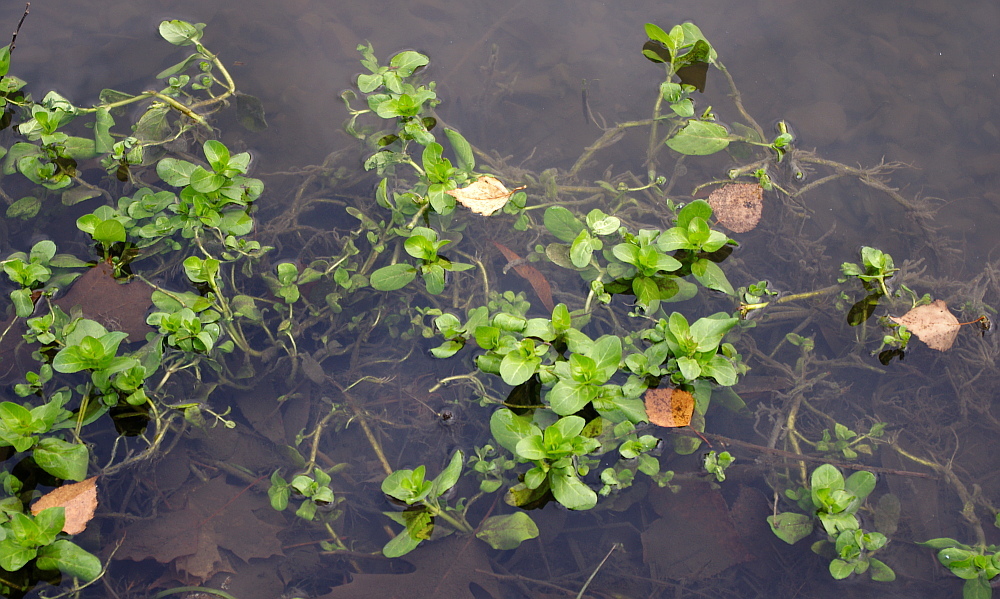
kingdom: Plantae
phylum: Tracheophyta
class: Magnoliopsida
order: Lamiales
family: Plantaginaceae
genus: Veronica
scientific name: Veronica beccabunga
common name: Brooklime
